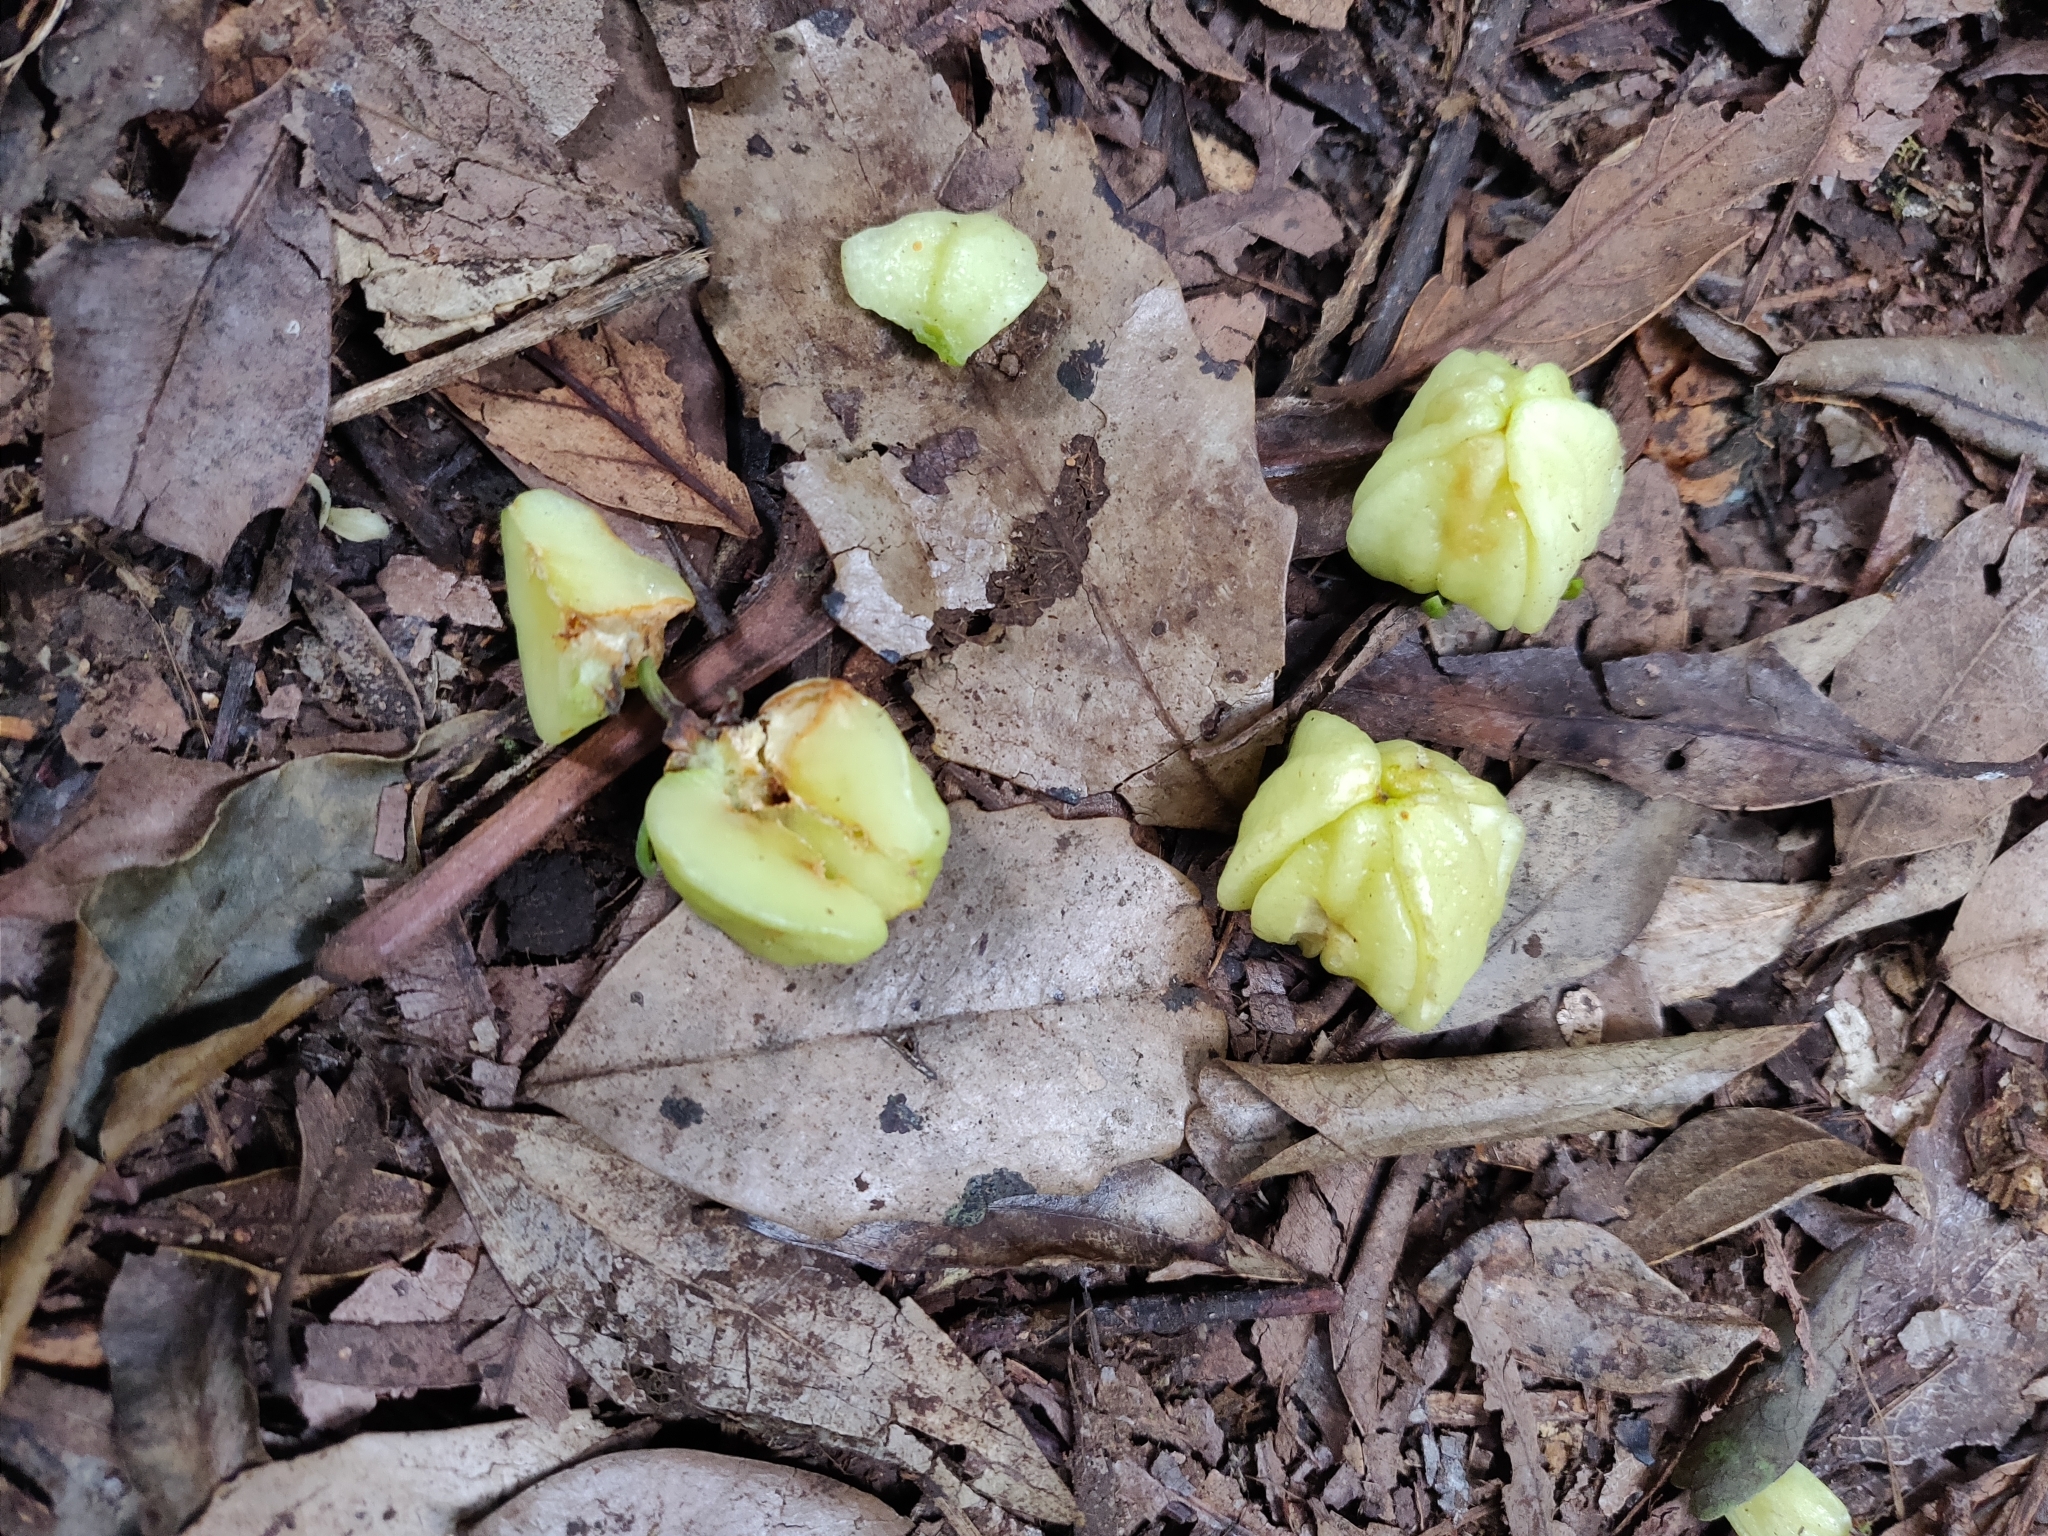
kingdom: Plantae
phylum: Tracheophyta
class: Magnoliopsida
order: Sapindales
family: Rutaceae
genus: Acronychia
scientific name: Acronychia suberosa
